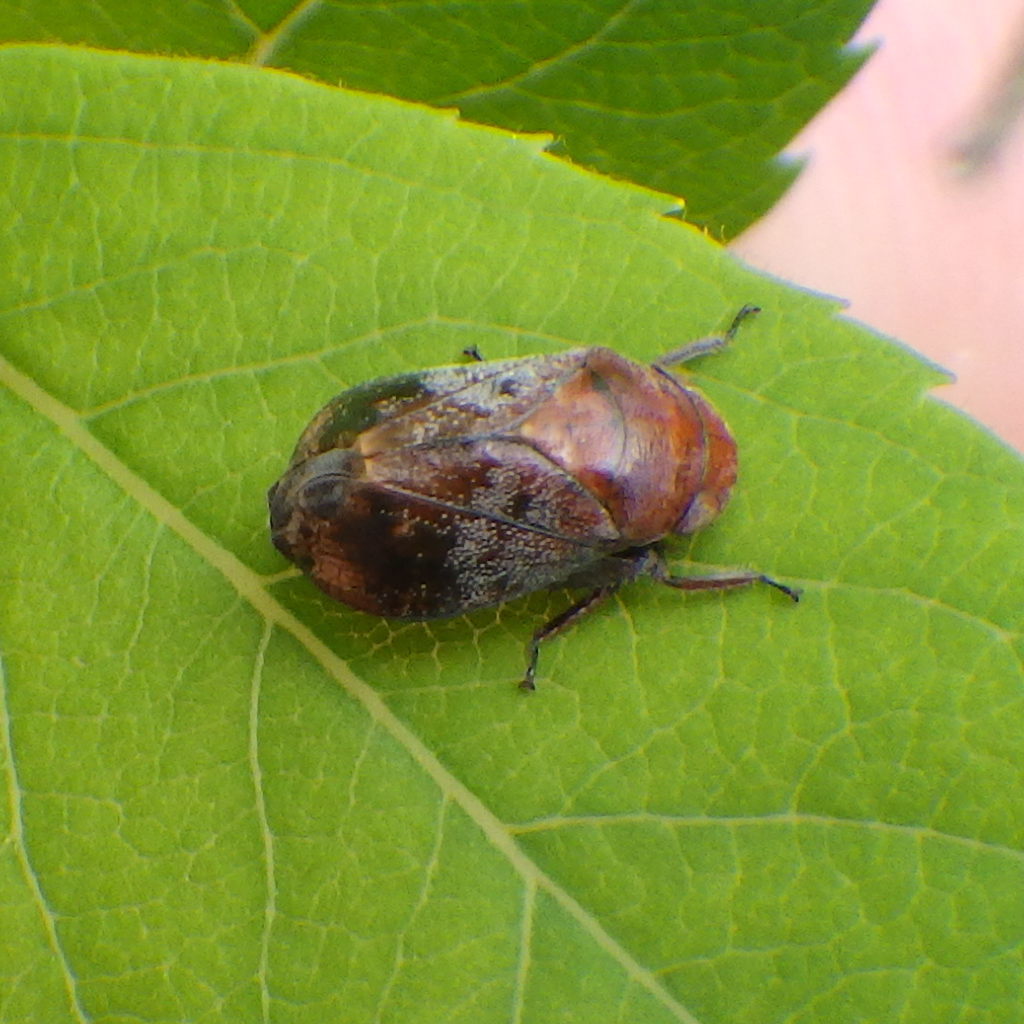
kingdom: Animalia
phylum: Arthropoda
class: Insecta
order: Hemiptera
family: Cicadellidae
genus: Penthimia
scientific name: Penthimia americana
